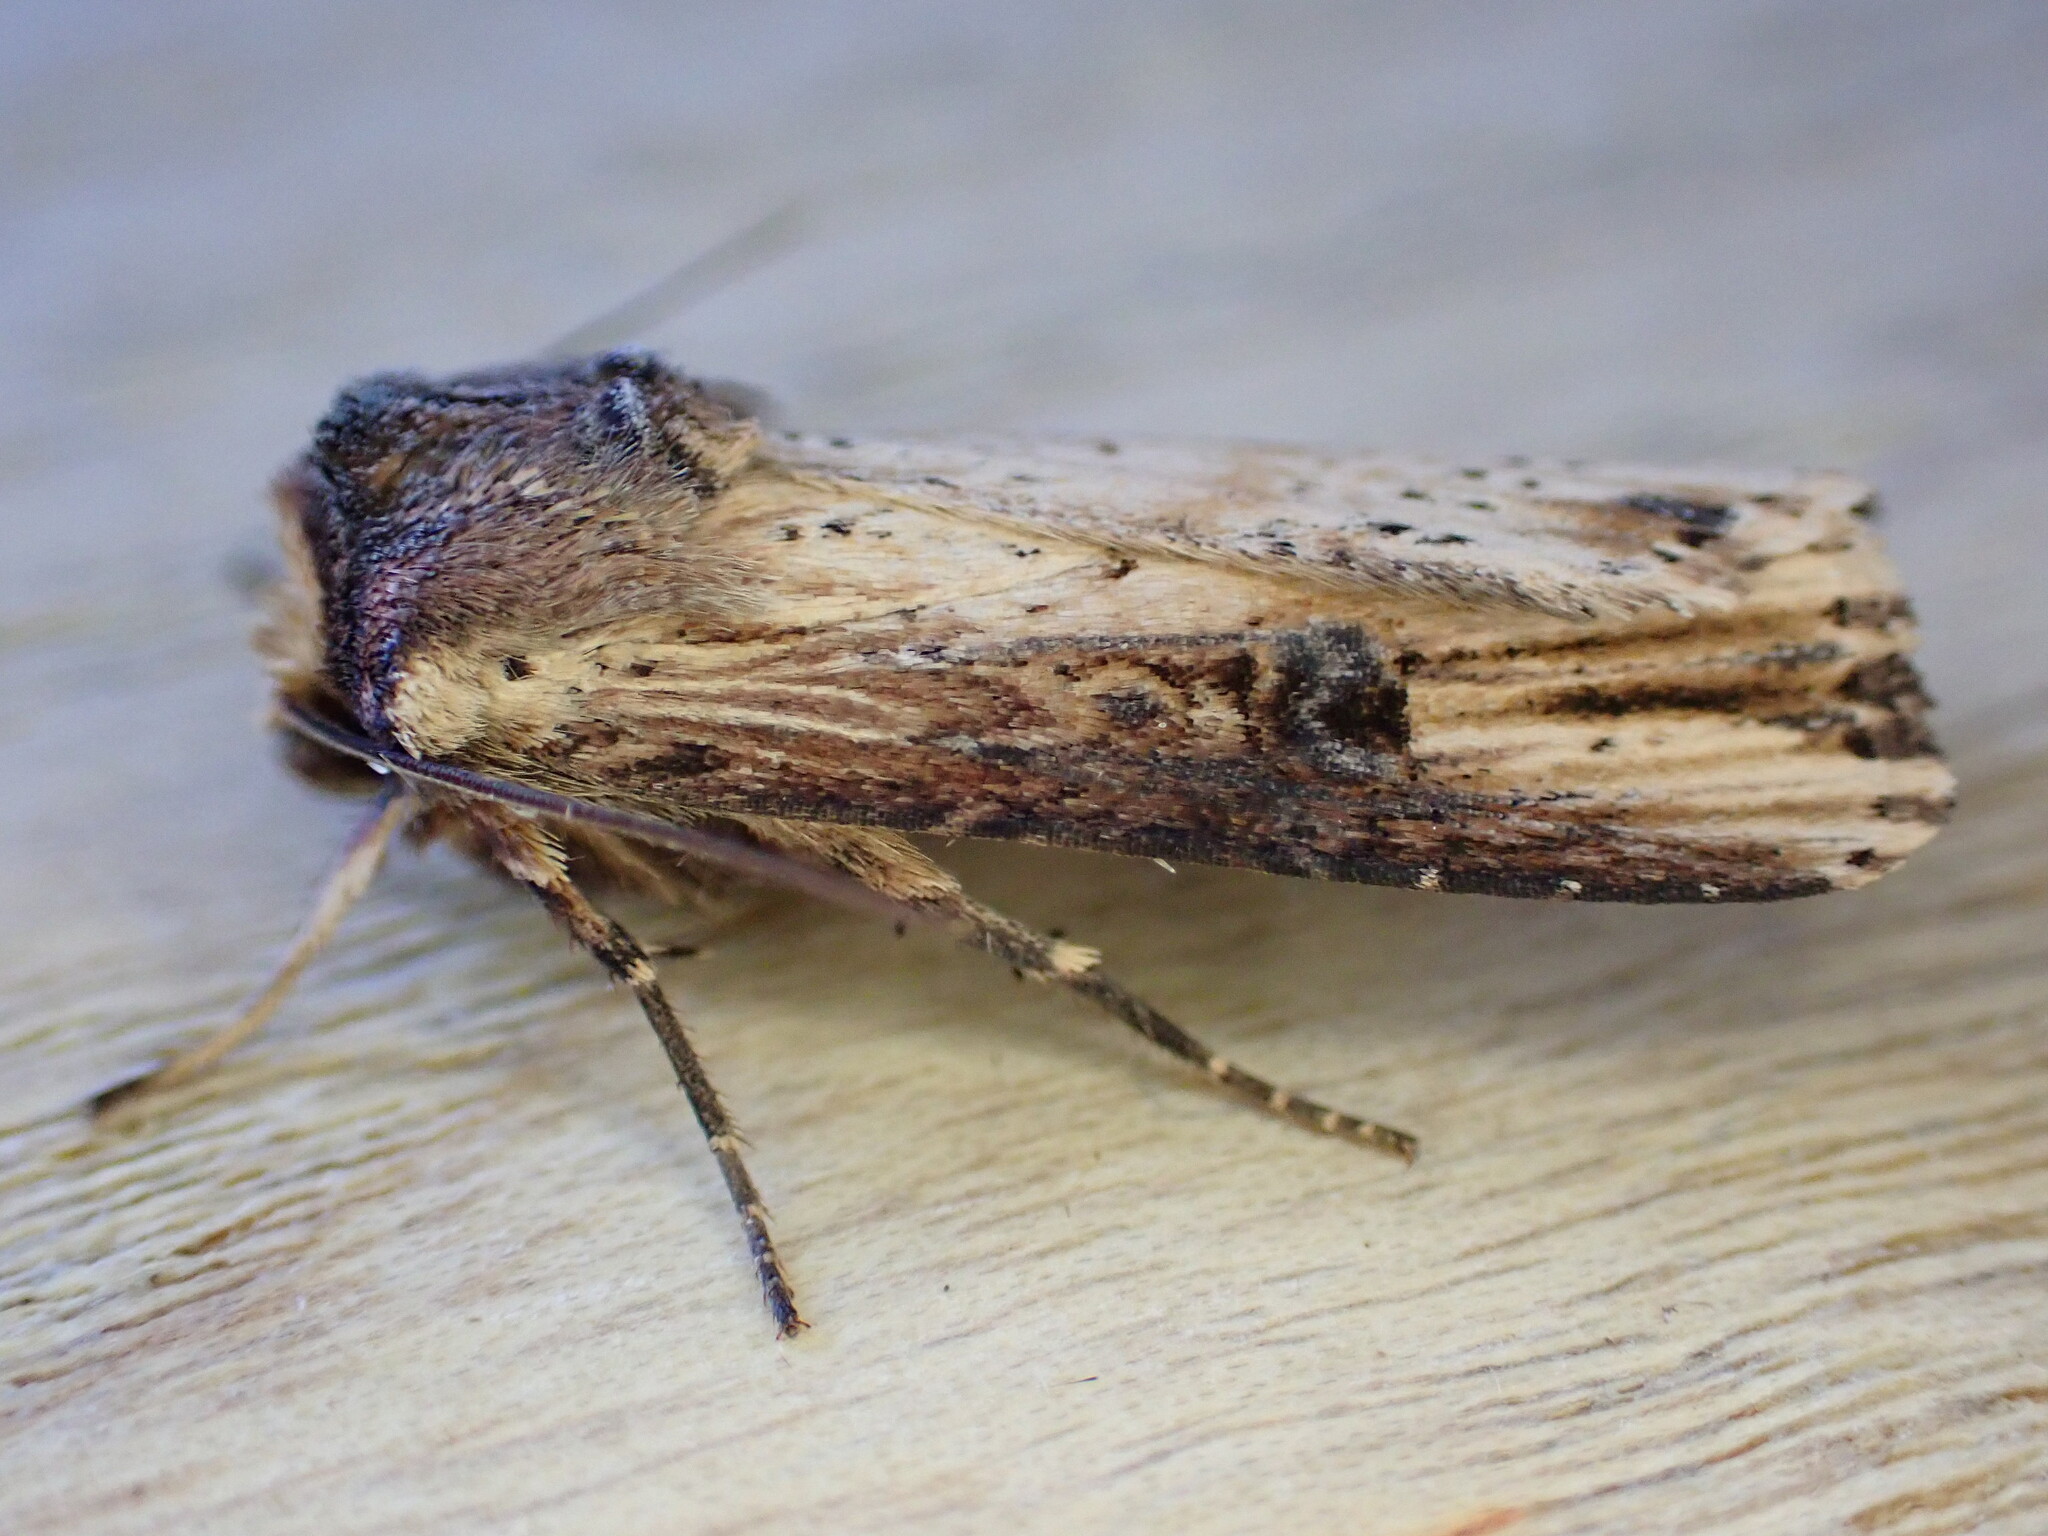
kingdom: Animalia
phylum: Arthropoda
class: Insecta
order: Lepidoptera
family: Noctuidae
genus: Axylia
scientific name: Axylia putris
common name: Flame
